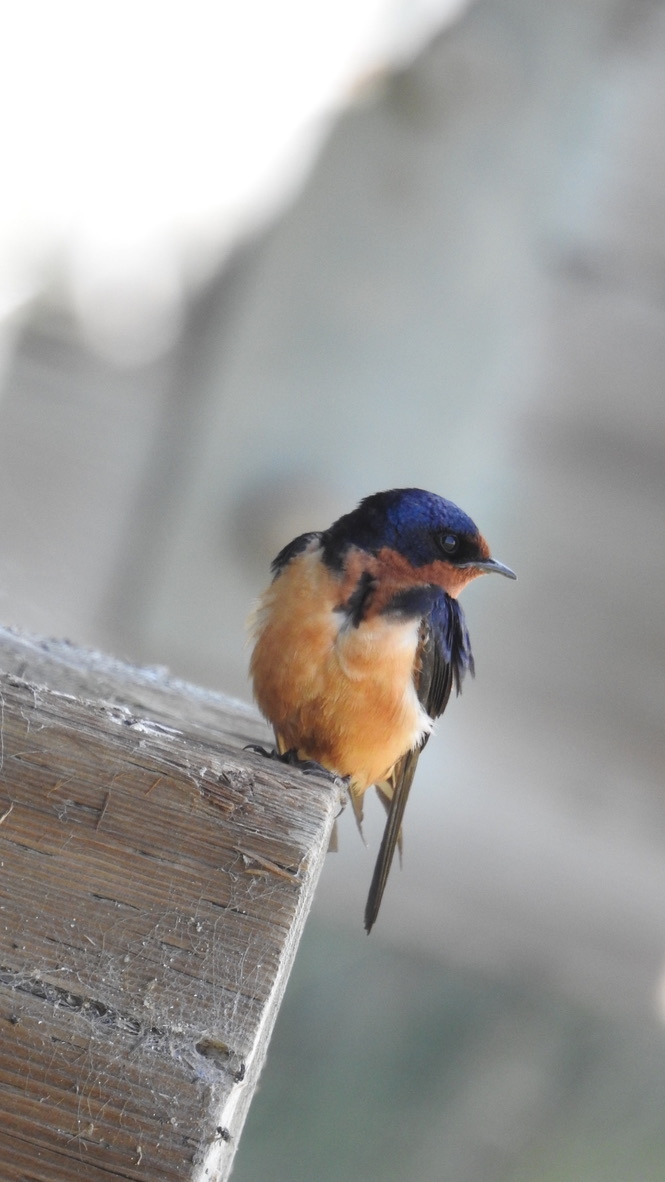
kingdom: Animalia
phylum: Chordata
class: Aves
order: Passeriformes
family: Hirundinidae
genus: Hirundo
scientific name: Hirundo rustica
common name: Barn swallow
